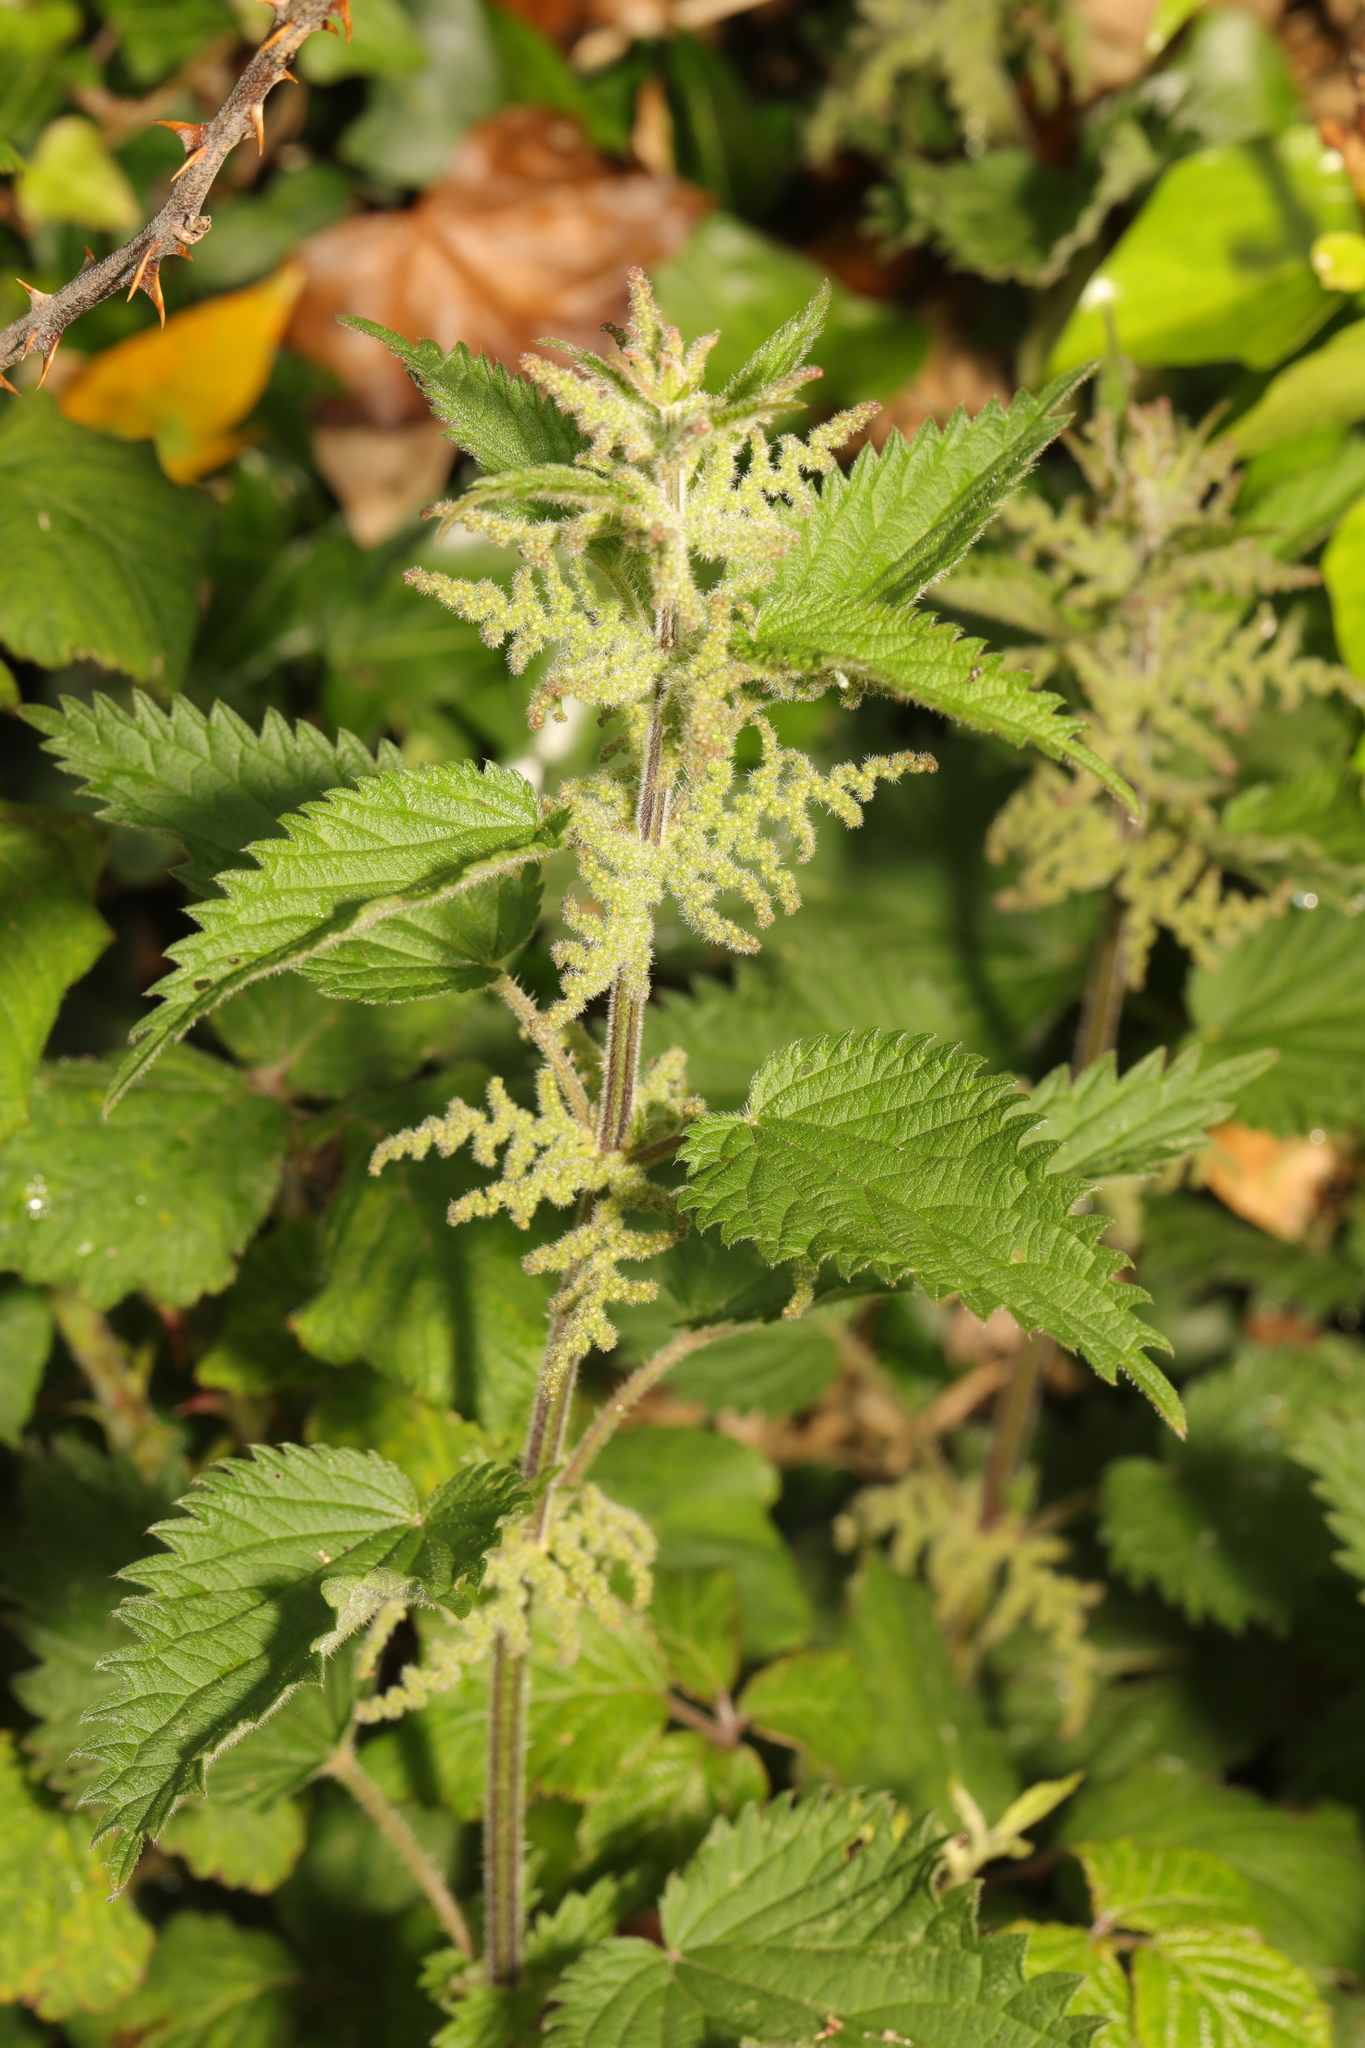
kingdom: Plantae
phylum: Tracheophyta
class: Magnoliopsida
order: Rosales
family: Urticaceae
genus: Urtica
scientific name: Urtica dioica
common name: Common nettle
